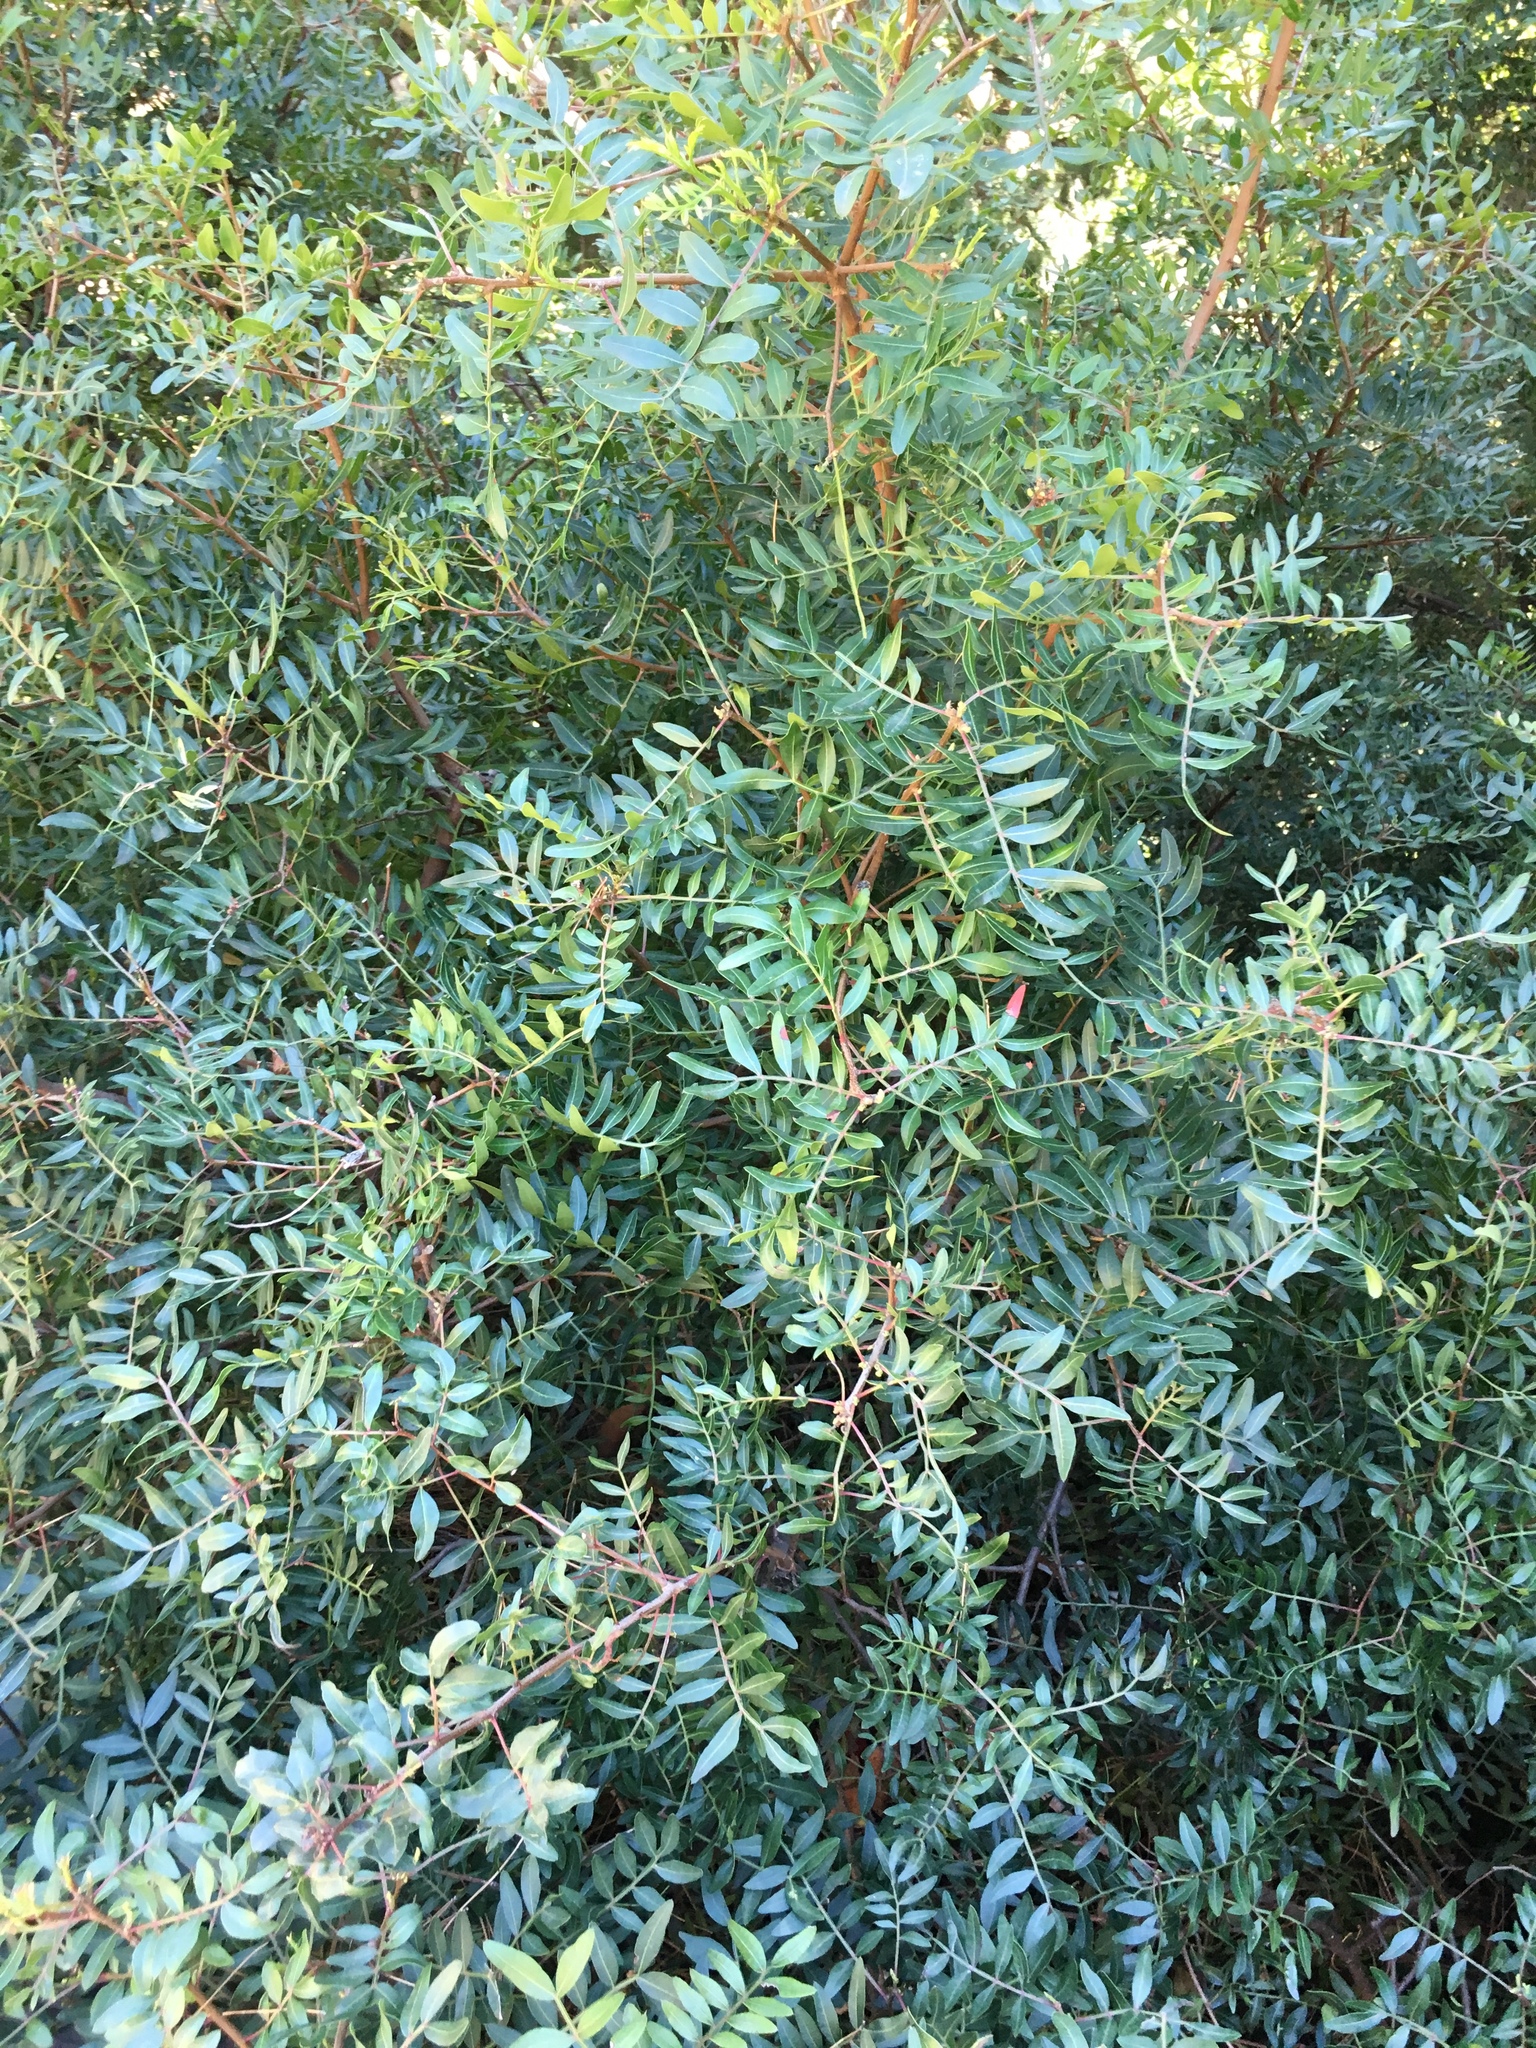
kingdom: Plantae
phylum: Tracheophyta
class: Magnoliopsida
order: Sapindales
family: Anacardiaceae
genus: Pistacia
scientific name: Pistacia lentiscus
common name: Lentisk
